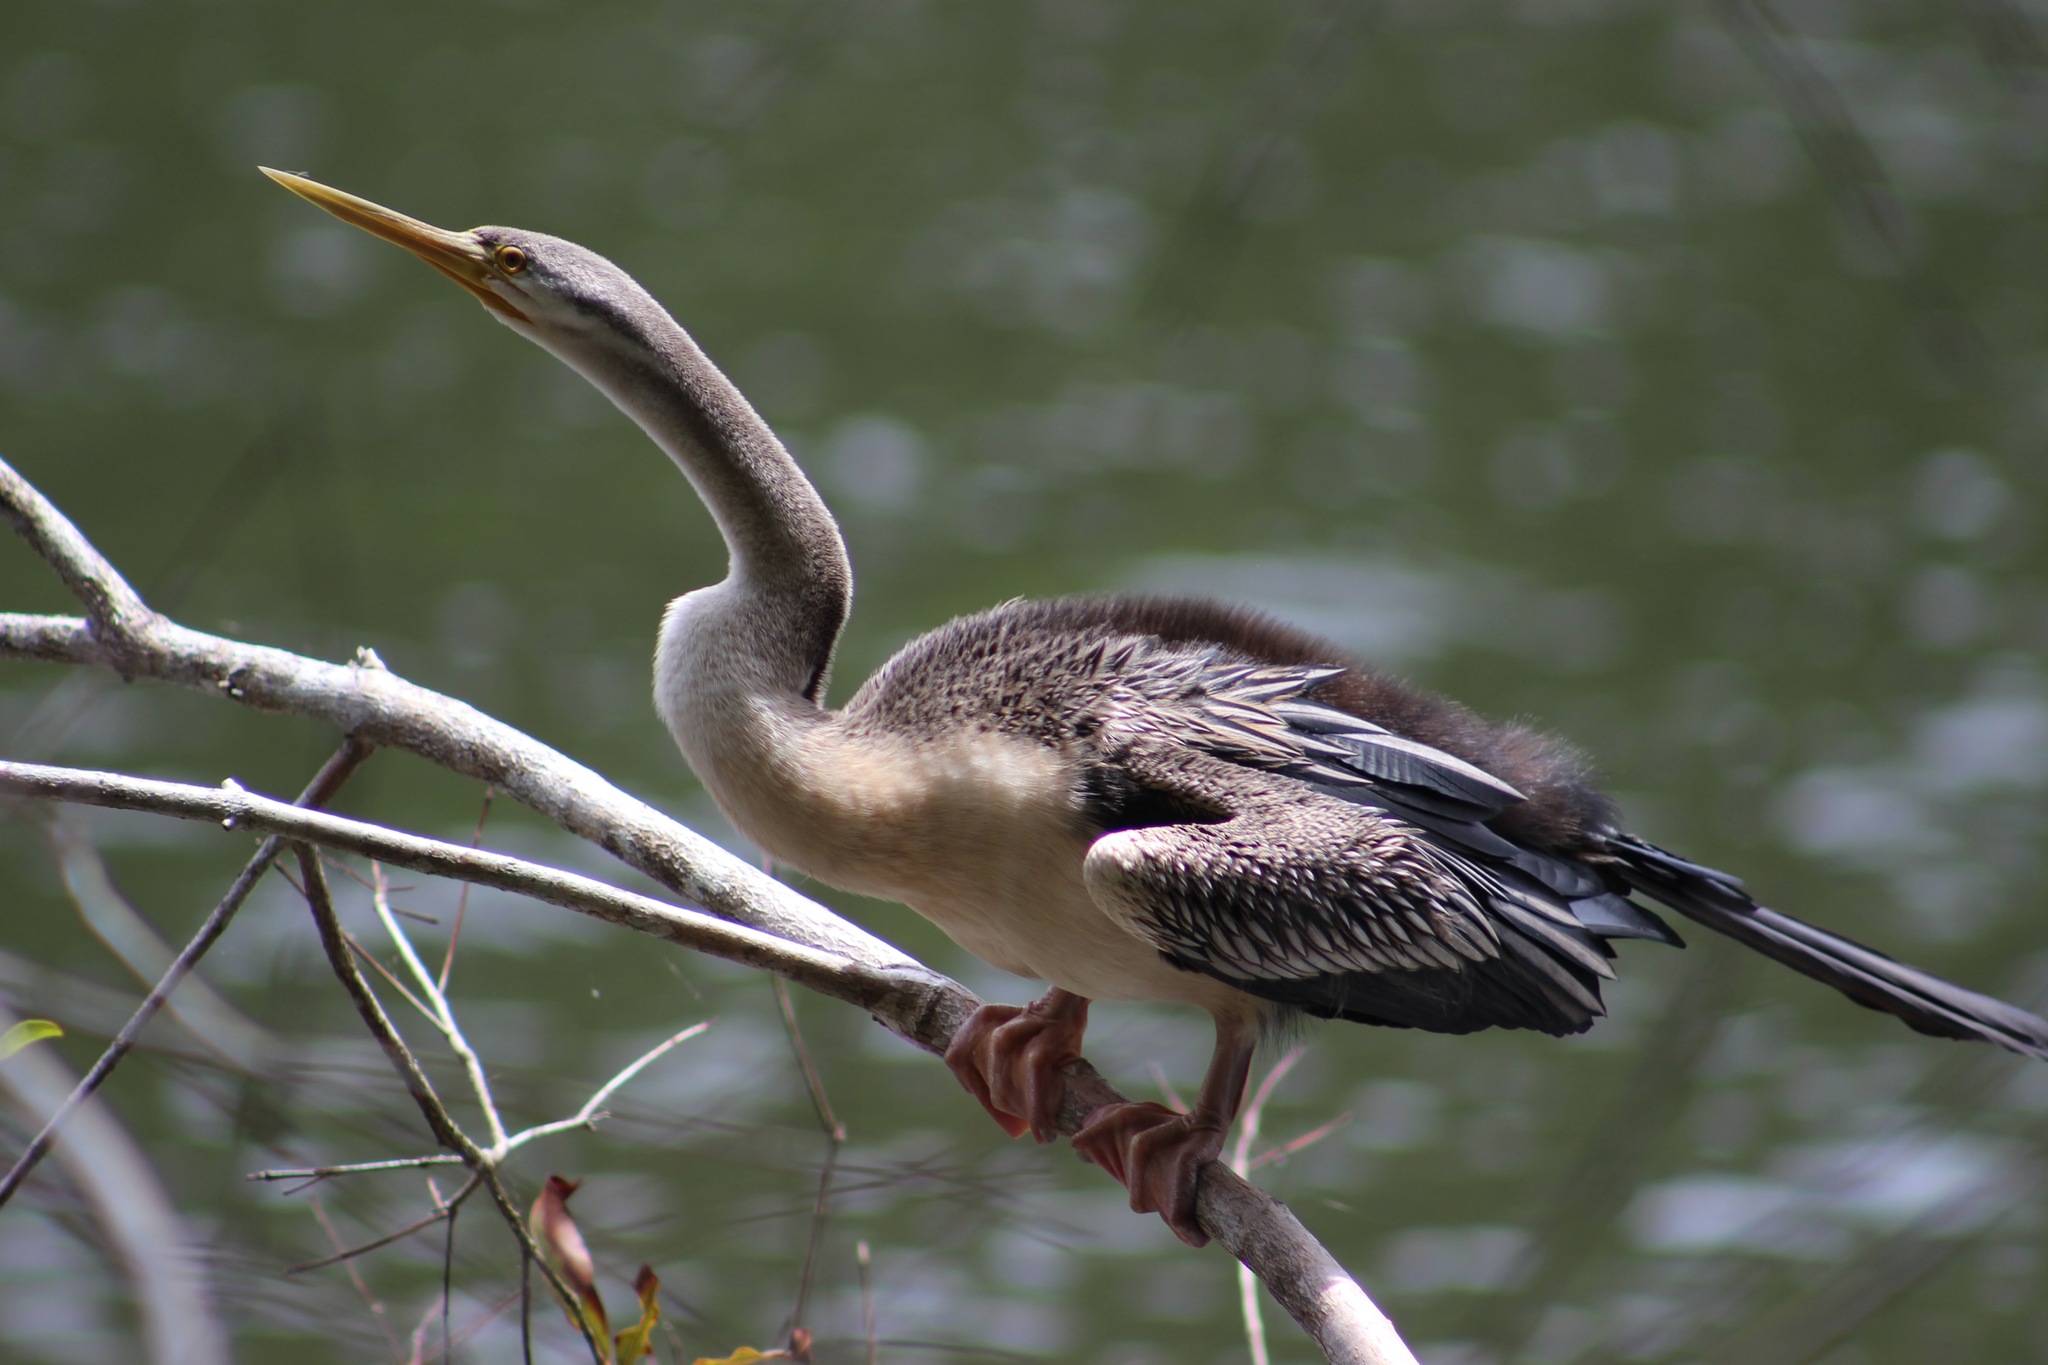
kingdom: Animalia
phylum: Chordata
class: Aves
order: Suliformes
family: Anhingidae
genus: Anhinga
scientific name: Anhinga novaehollandiae
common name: Australasian darter
